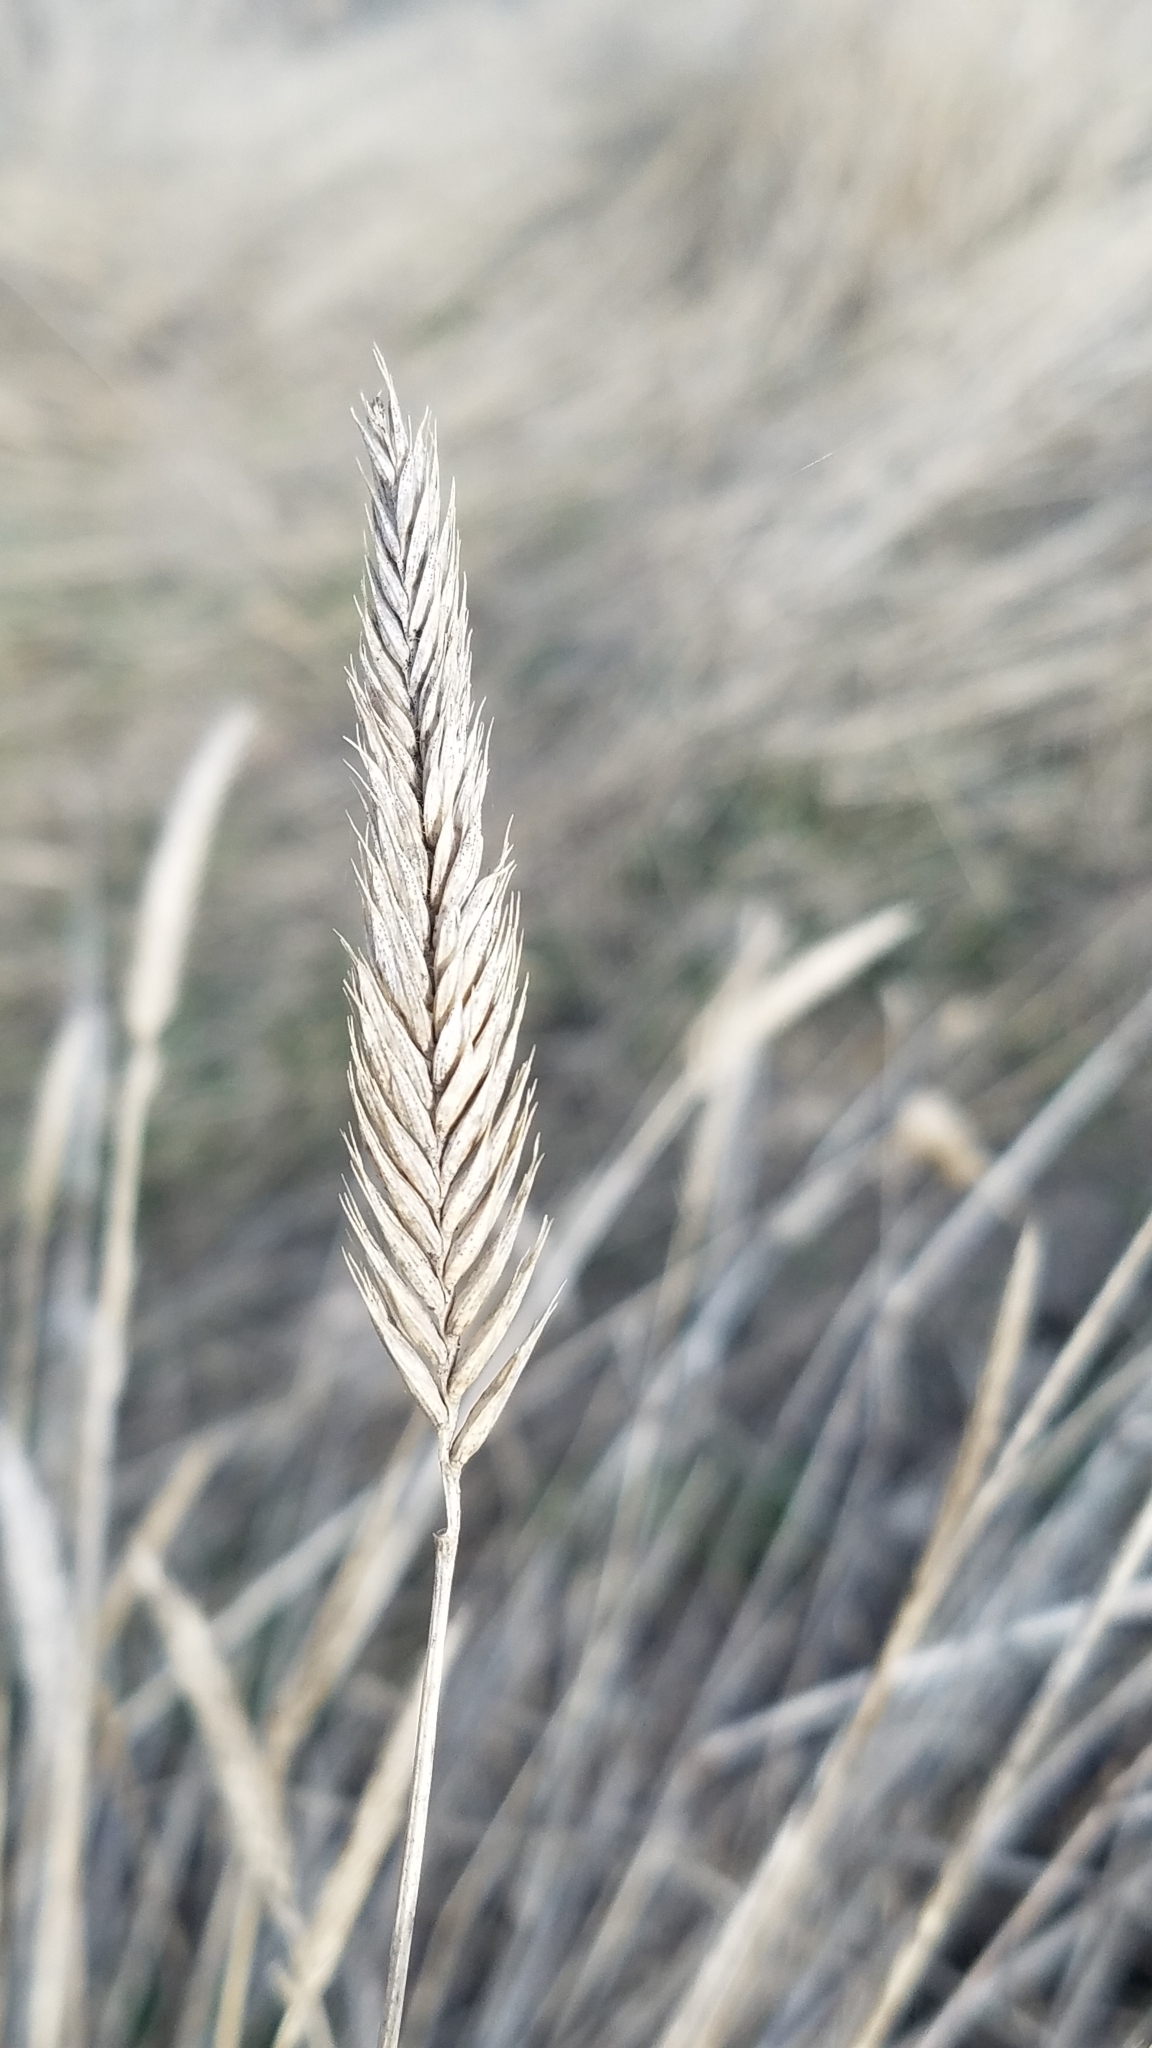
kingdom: Plantae
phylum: Tracheophyta
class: Liliopsida
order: Poales
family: Poaceae
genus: Agropyron
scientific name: Agropyron cristatum
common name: Crested wheatgrass
